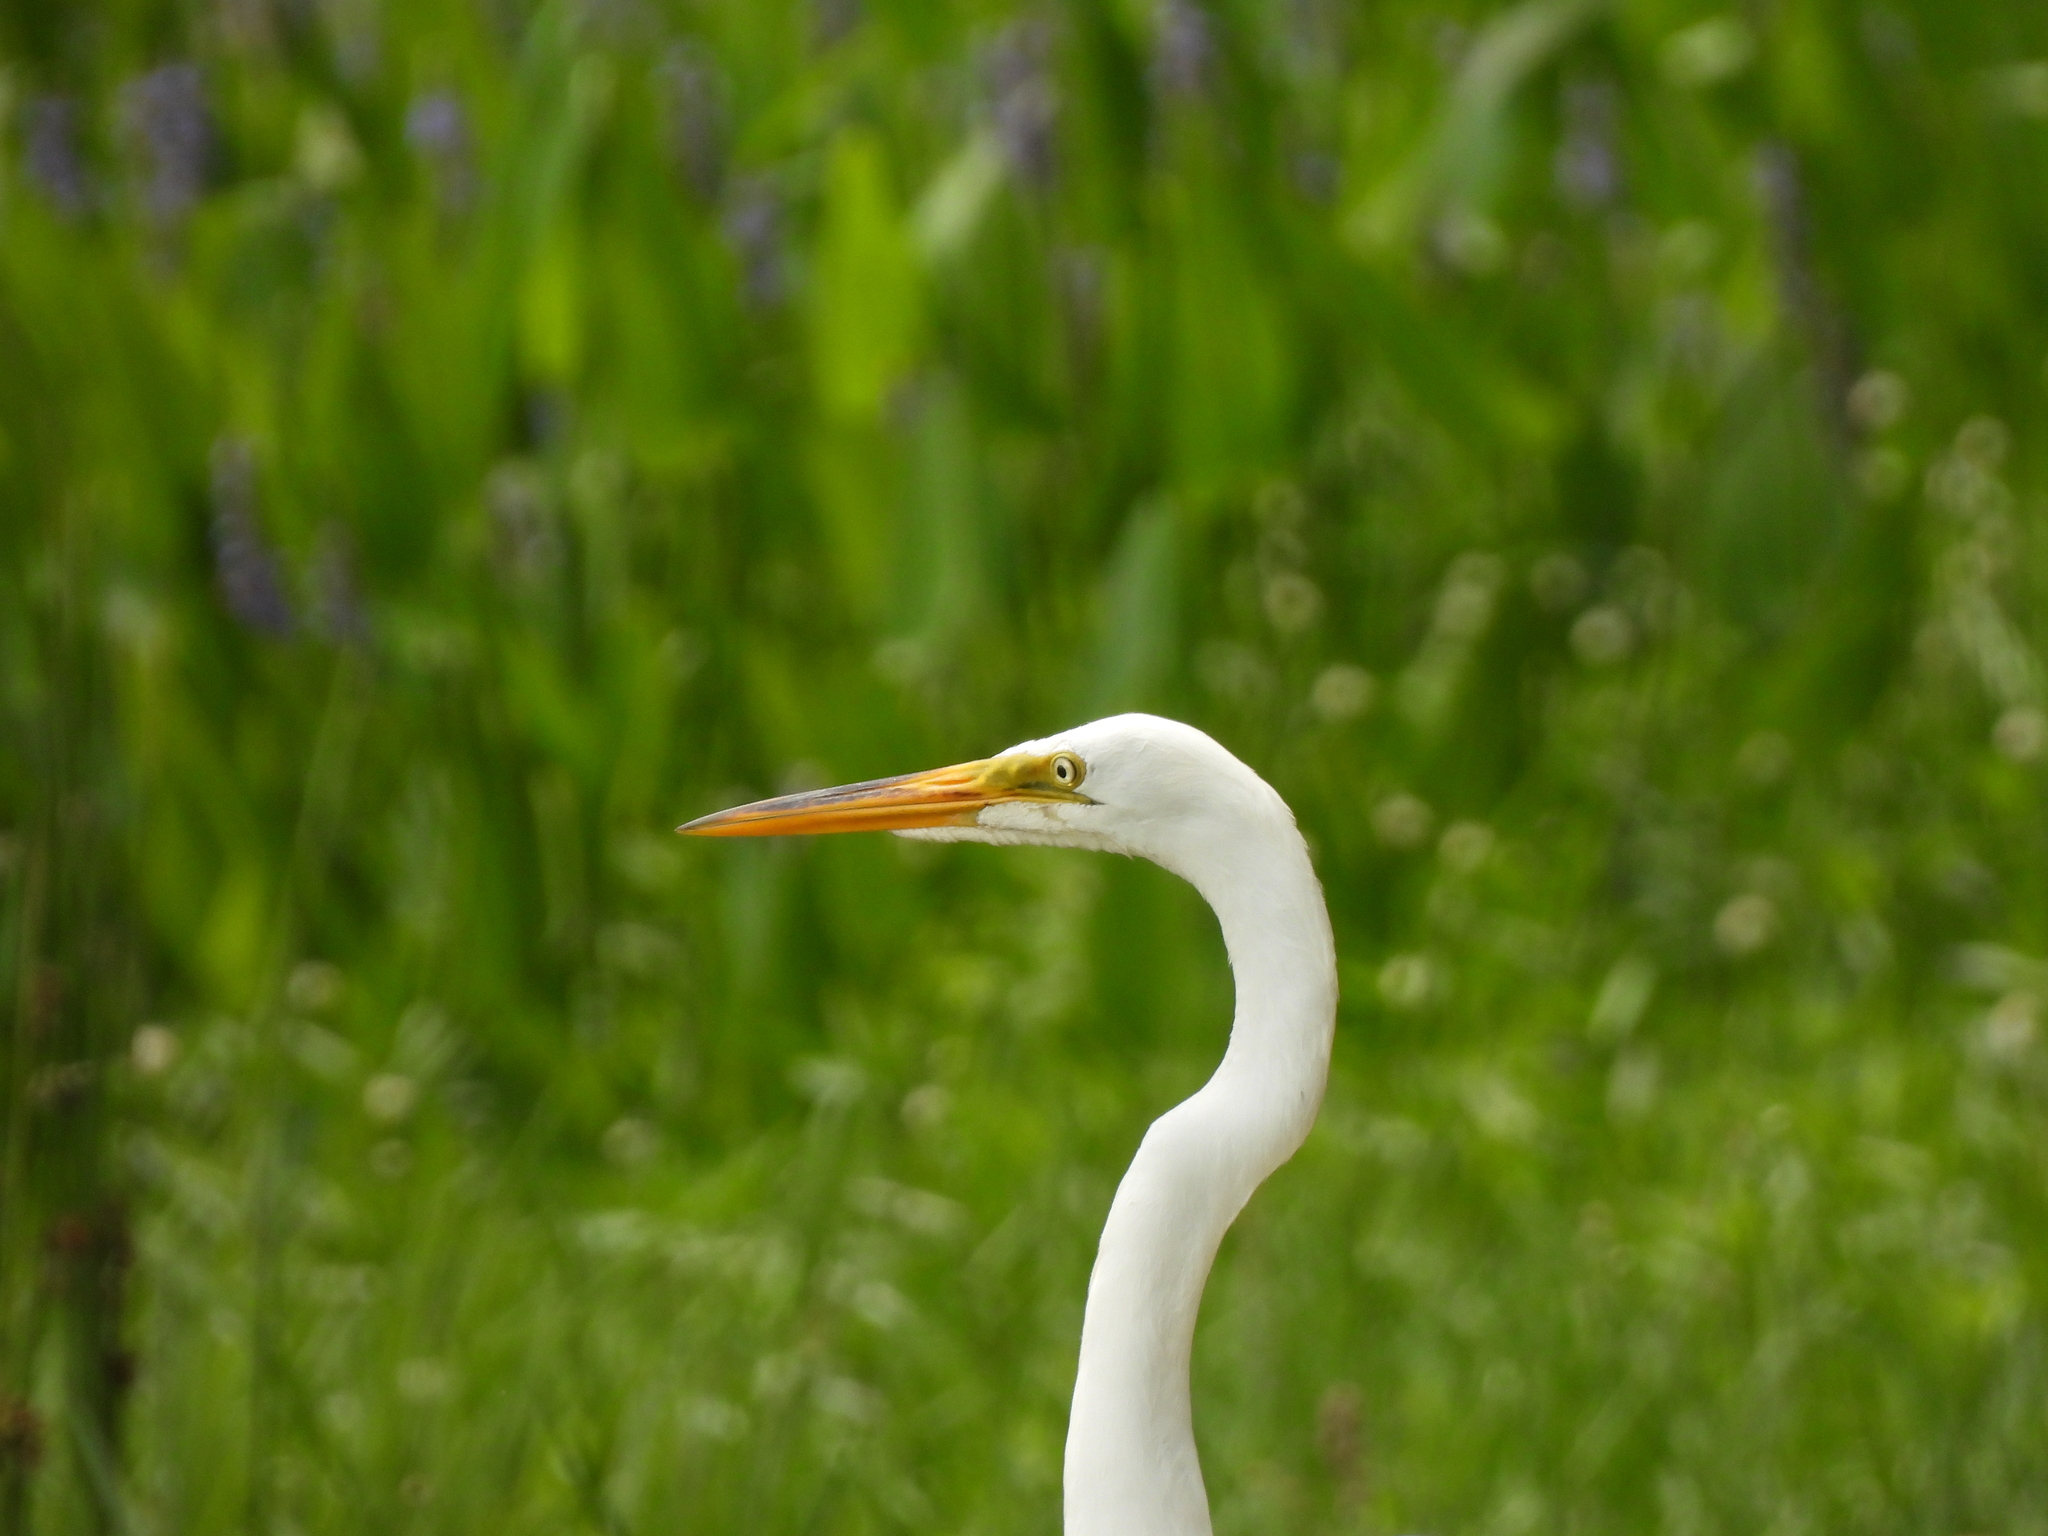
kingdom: Animalia
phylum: Chordata
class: Aves
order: Pelecaniformes
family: Ardeidae
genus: Ardea
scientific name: Ardea alba
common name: Great egret
